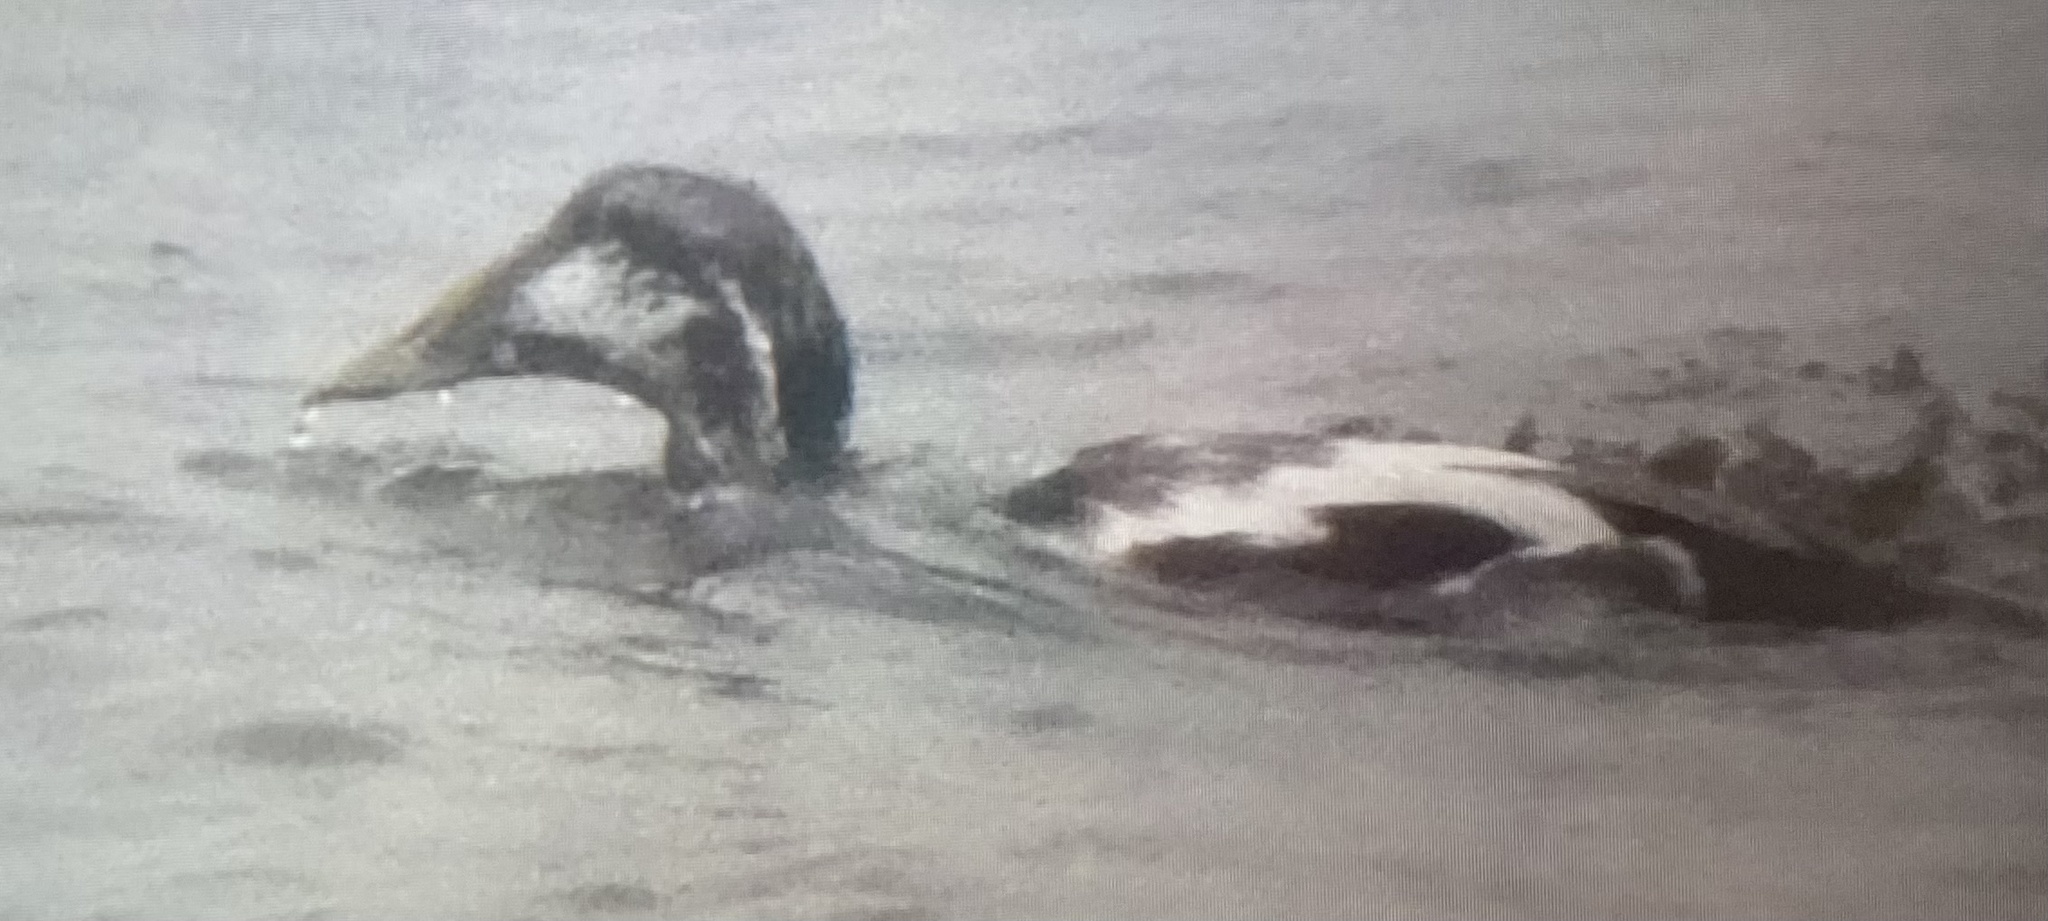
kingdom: Animalia
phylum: Chordata
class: Aves
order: Anseriformes
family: Anatidae
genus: Somateria
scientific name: Somateria mollissima
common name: Common eider
